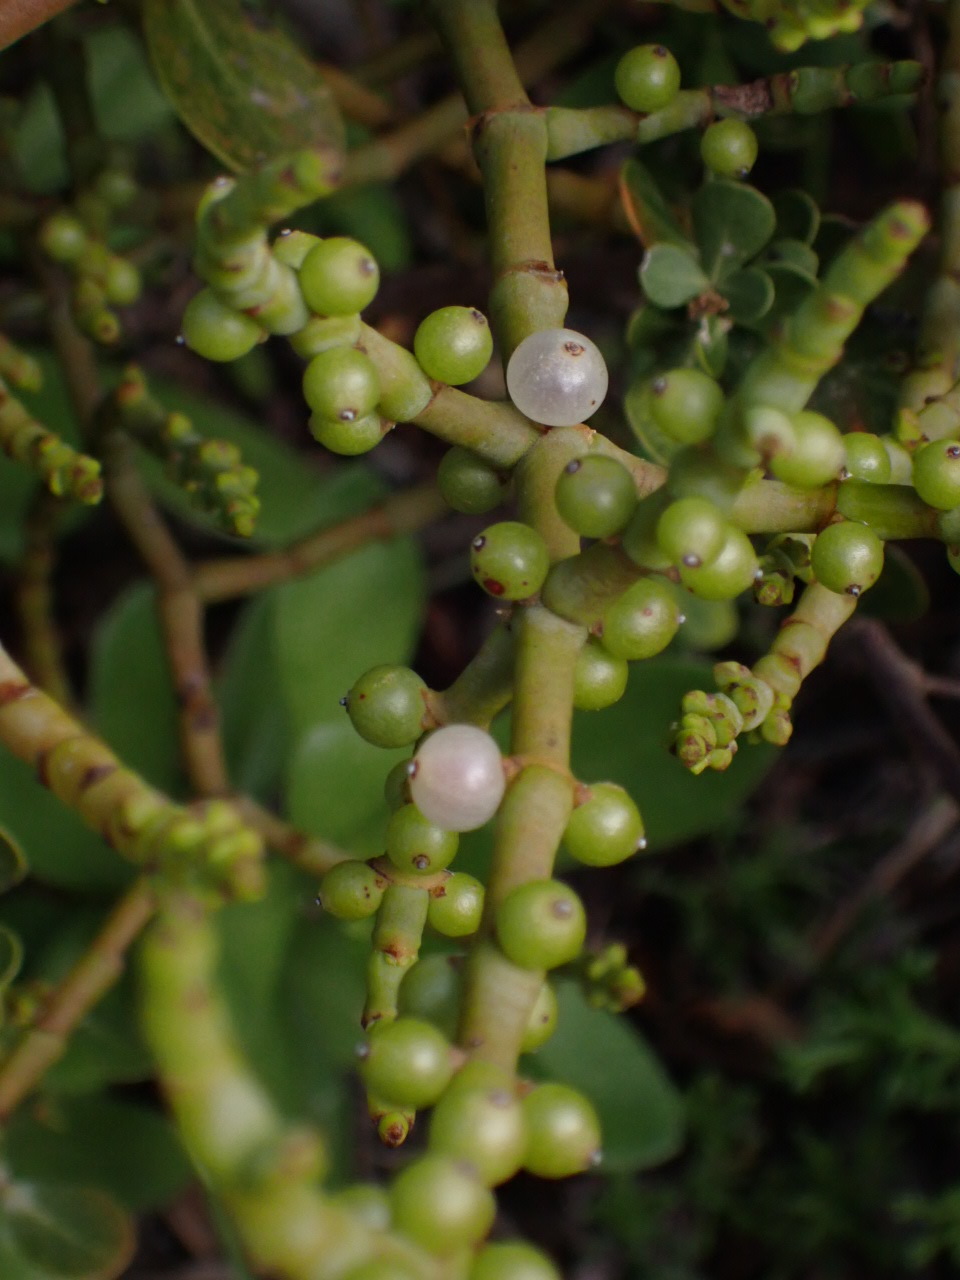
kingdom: Plantae
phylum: Tracheophyta
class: Magnoliopsida
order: Santalales
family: Viscaceae
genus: Viscum
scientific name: Viscum capense
